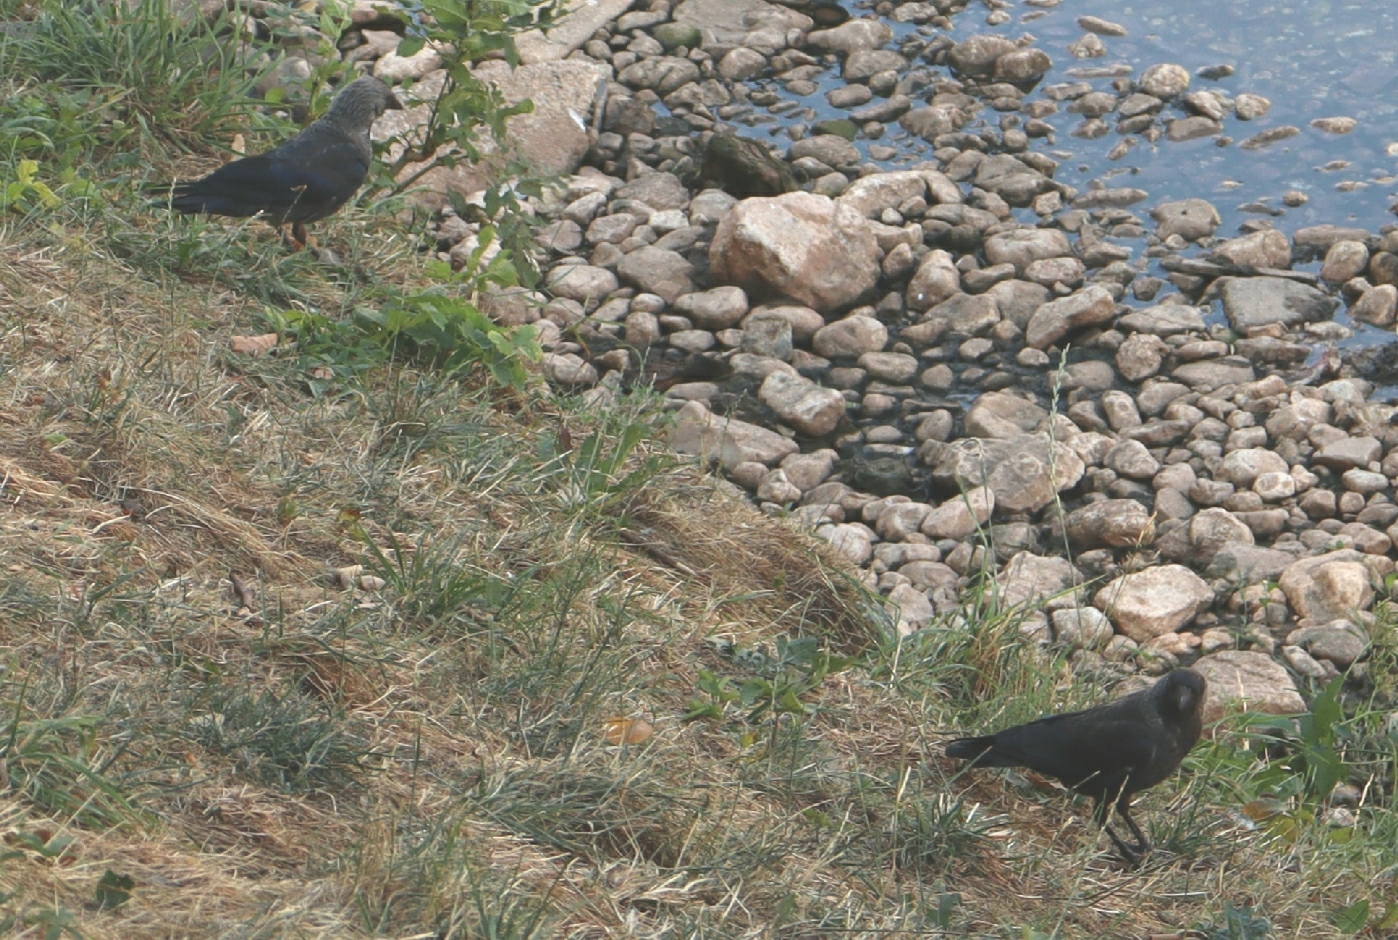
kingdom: Animalia
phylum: Chordata
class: Aves
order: Passeriformes
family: Corvidae
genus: Coloeus
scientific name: Coloeus monedula
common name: Western jackdaw
